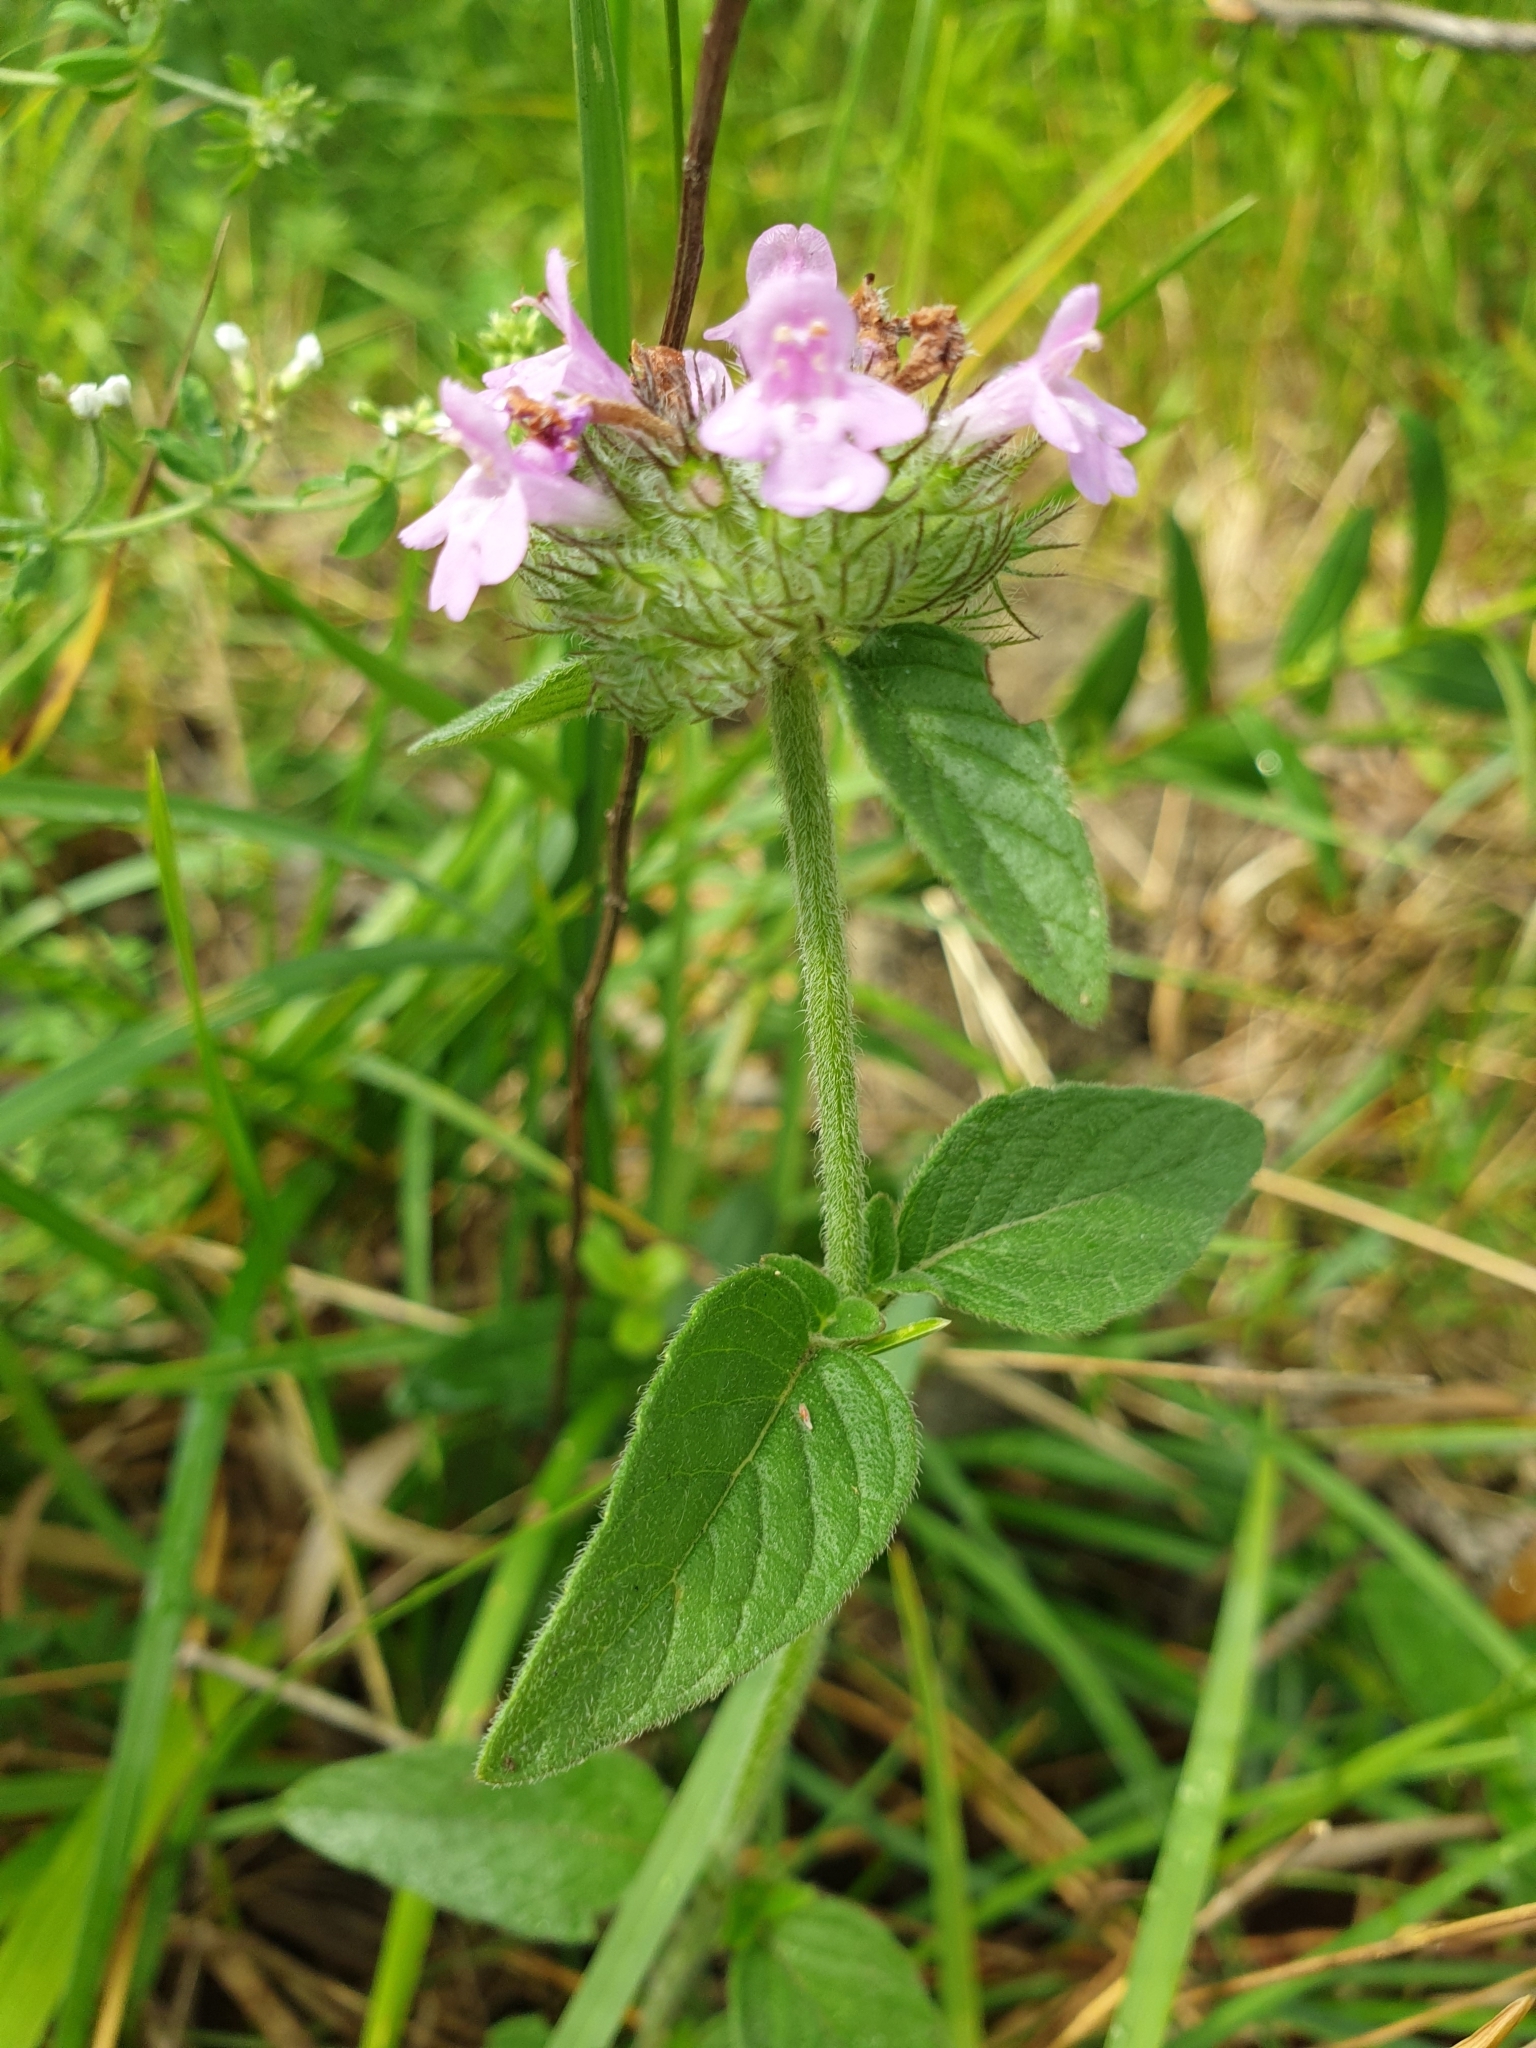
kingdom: Plantae
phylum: Tracheophyta
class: Magnoliopsida
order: Lamiales
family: Lamiaceae
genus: Clinopodium
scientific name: Clinopodium vulgare
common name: Wild basil
